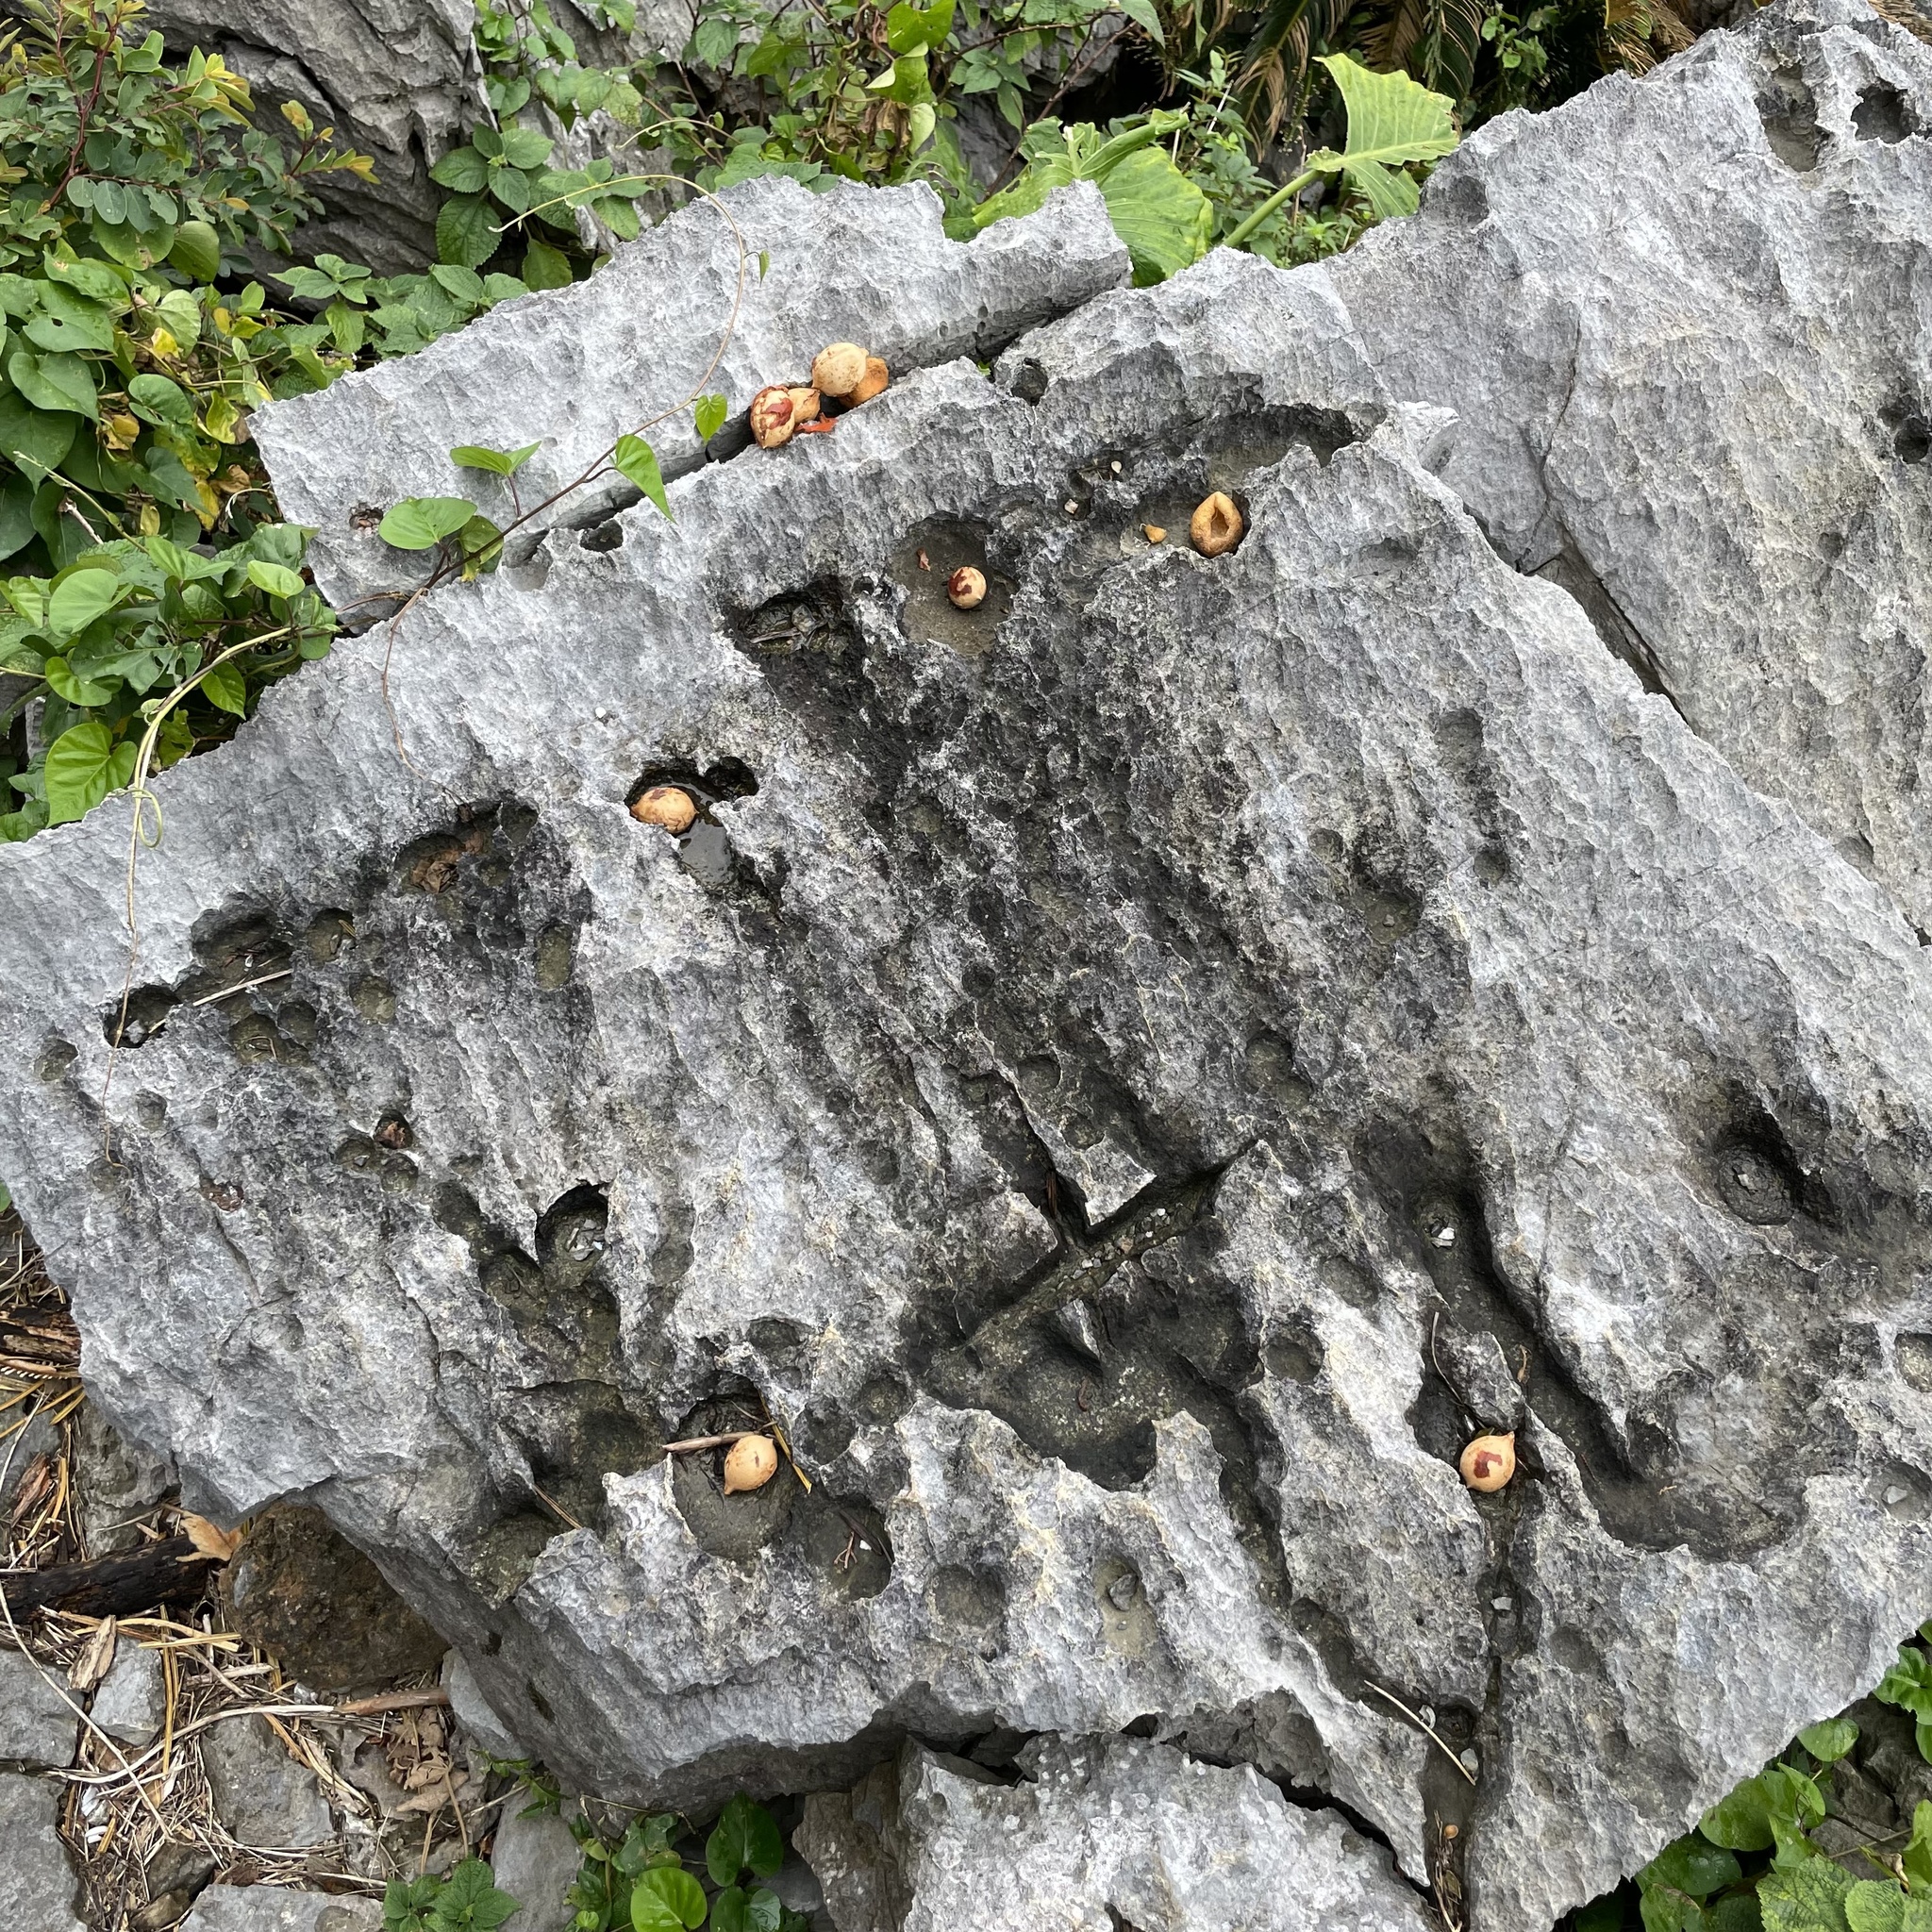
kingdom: Plantae
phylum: Tracheophyta
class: Cycadopsida
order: Cycadales
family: Cycadaceae
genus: Cycas
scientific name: Cycas revoluta
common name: Sago palm
